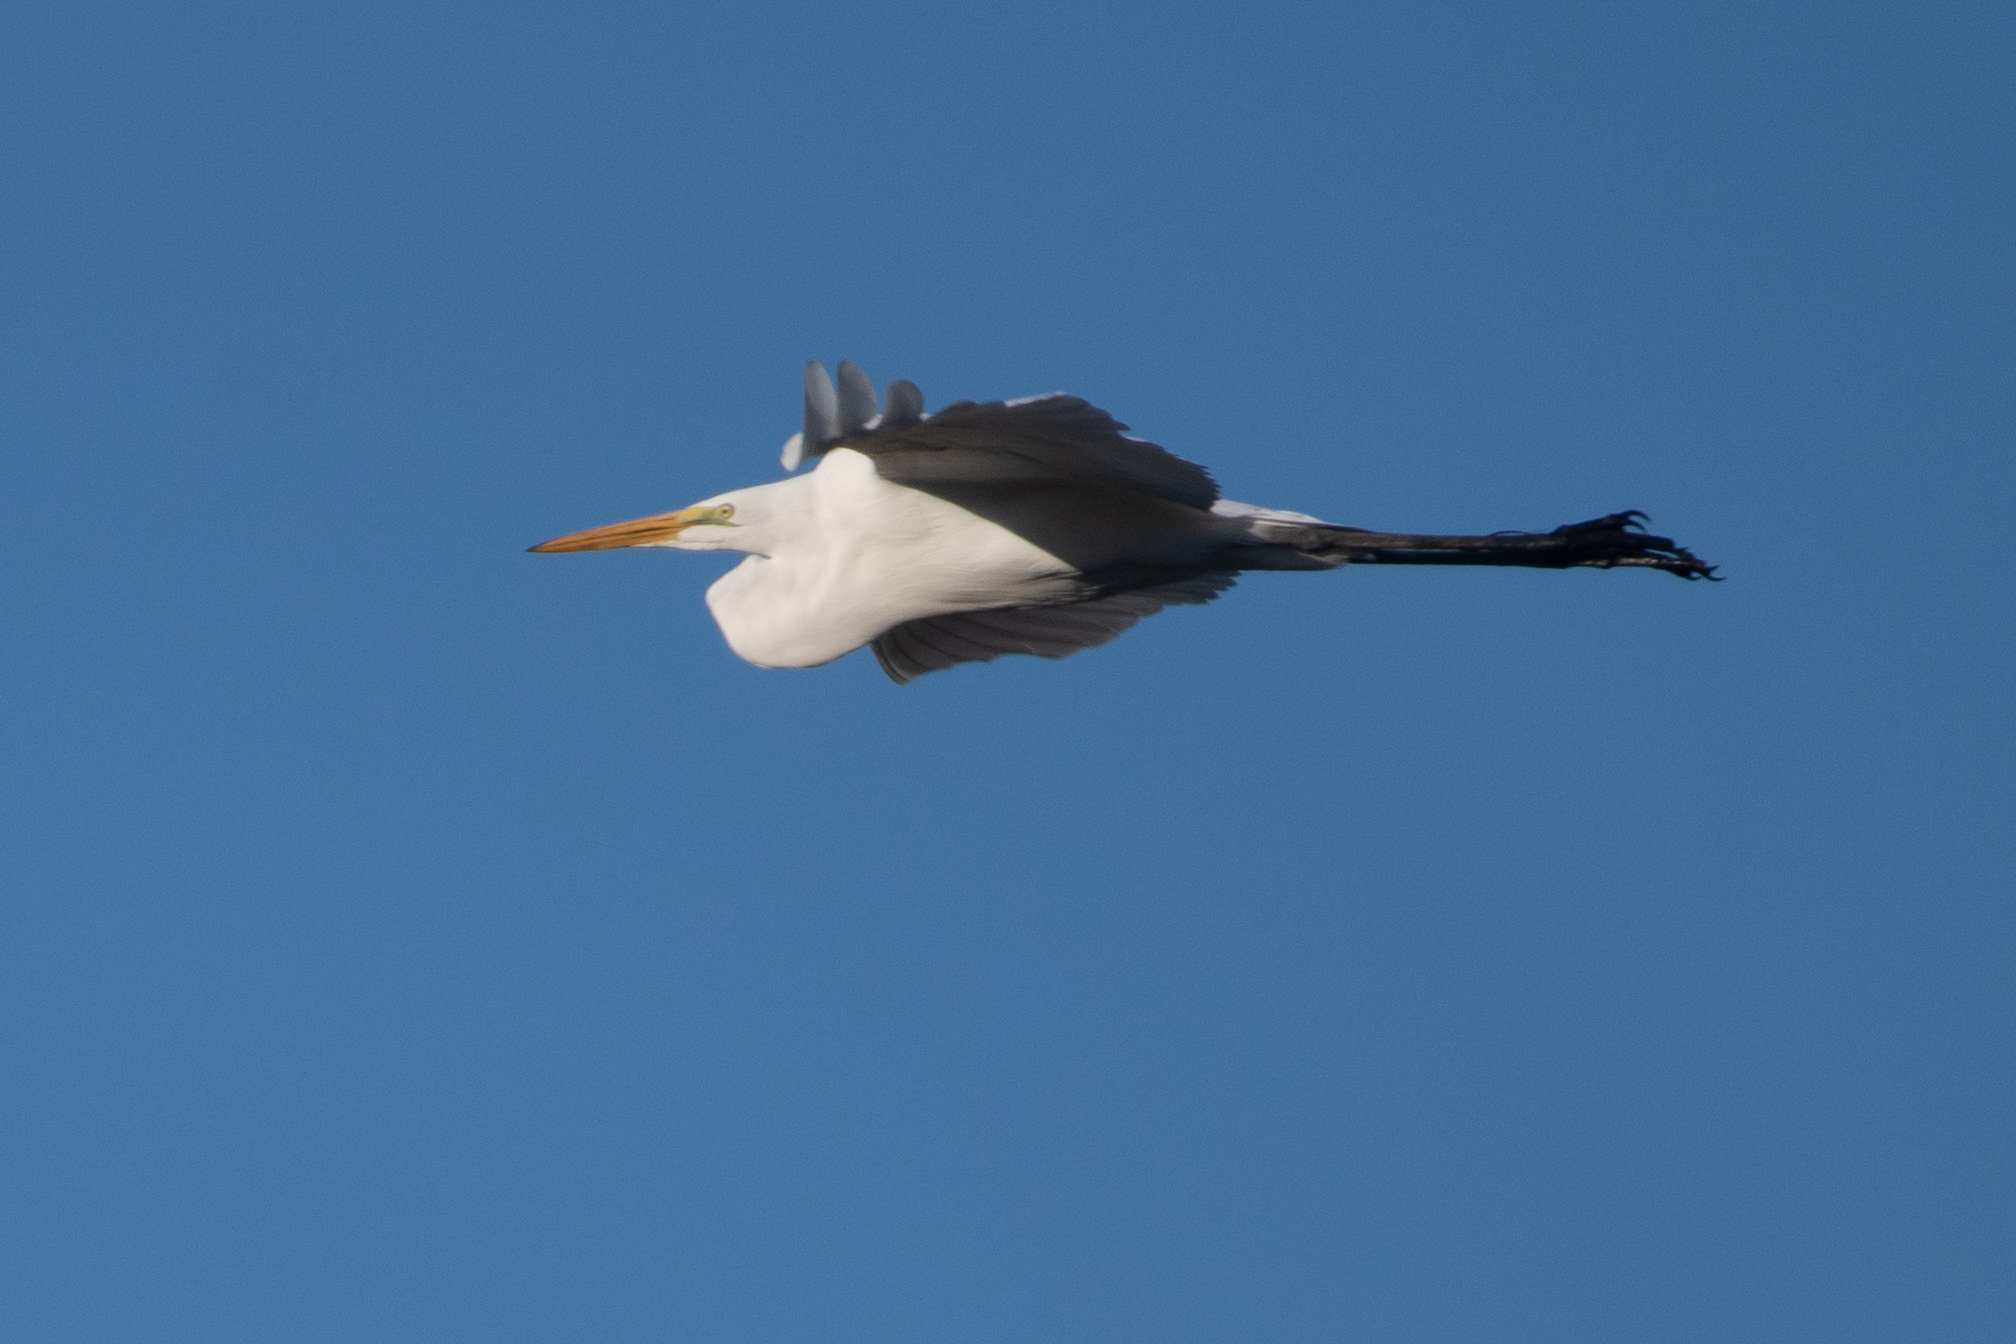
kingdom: Animalia
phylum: Chordata
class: Aves
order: Pelecaniformes
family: Ardeidae
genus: Ardea
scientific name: Ardea alba
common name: Great egret
